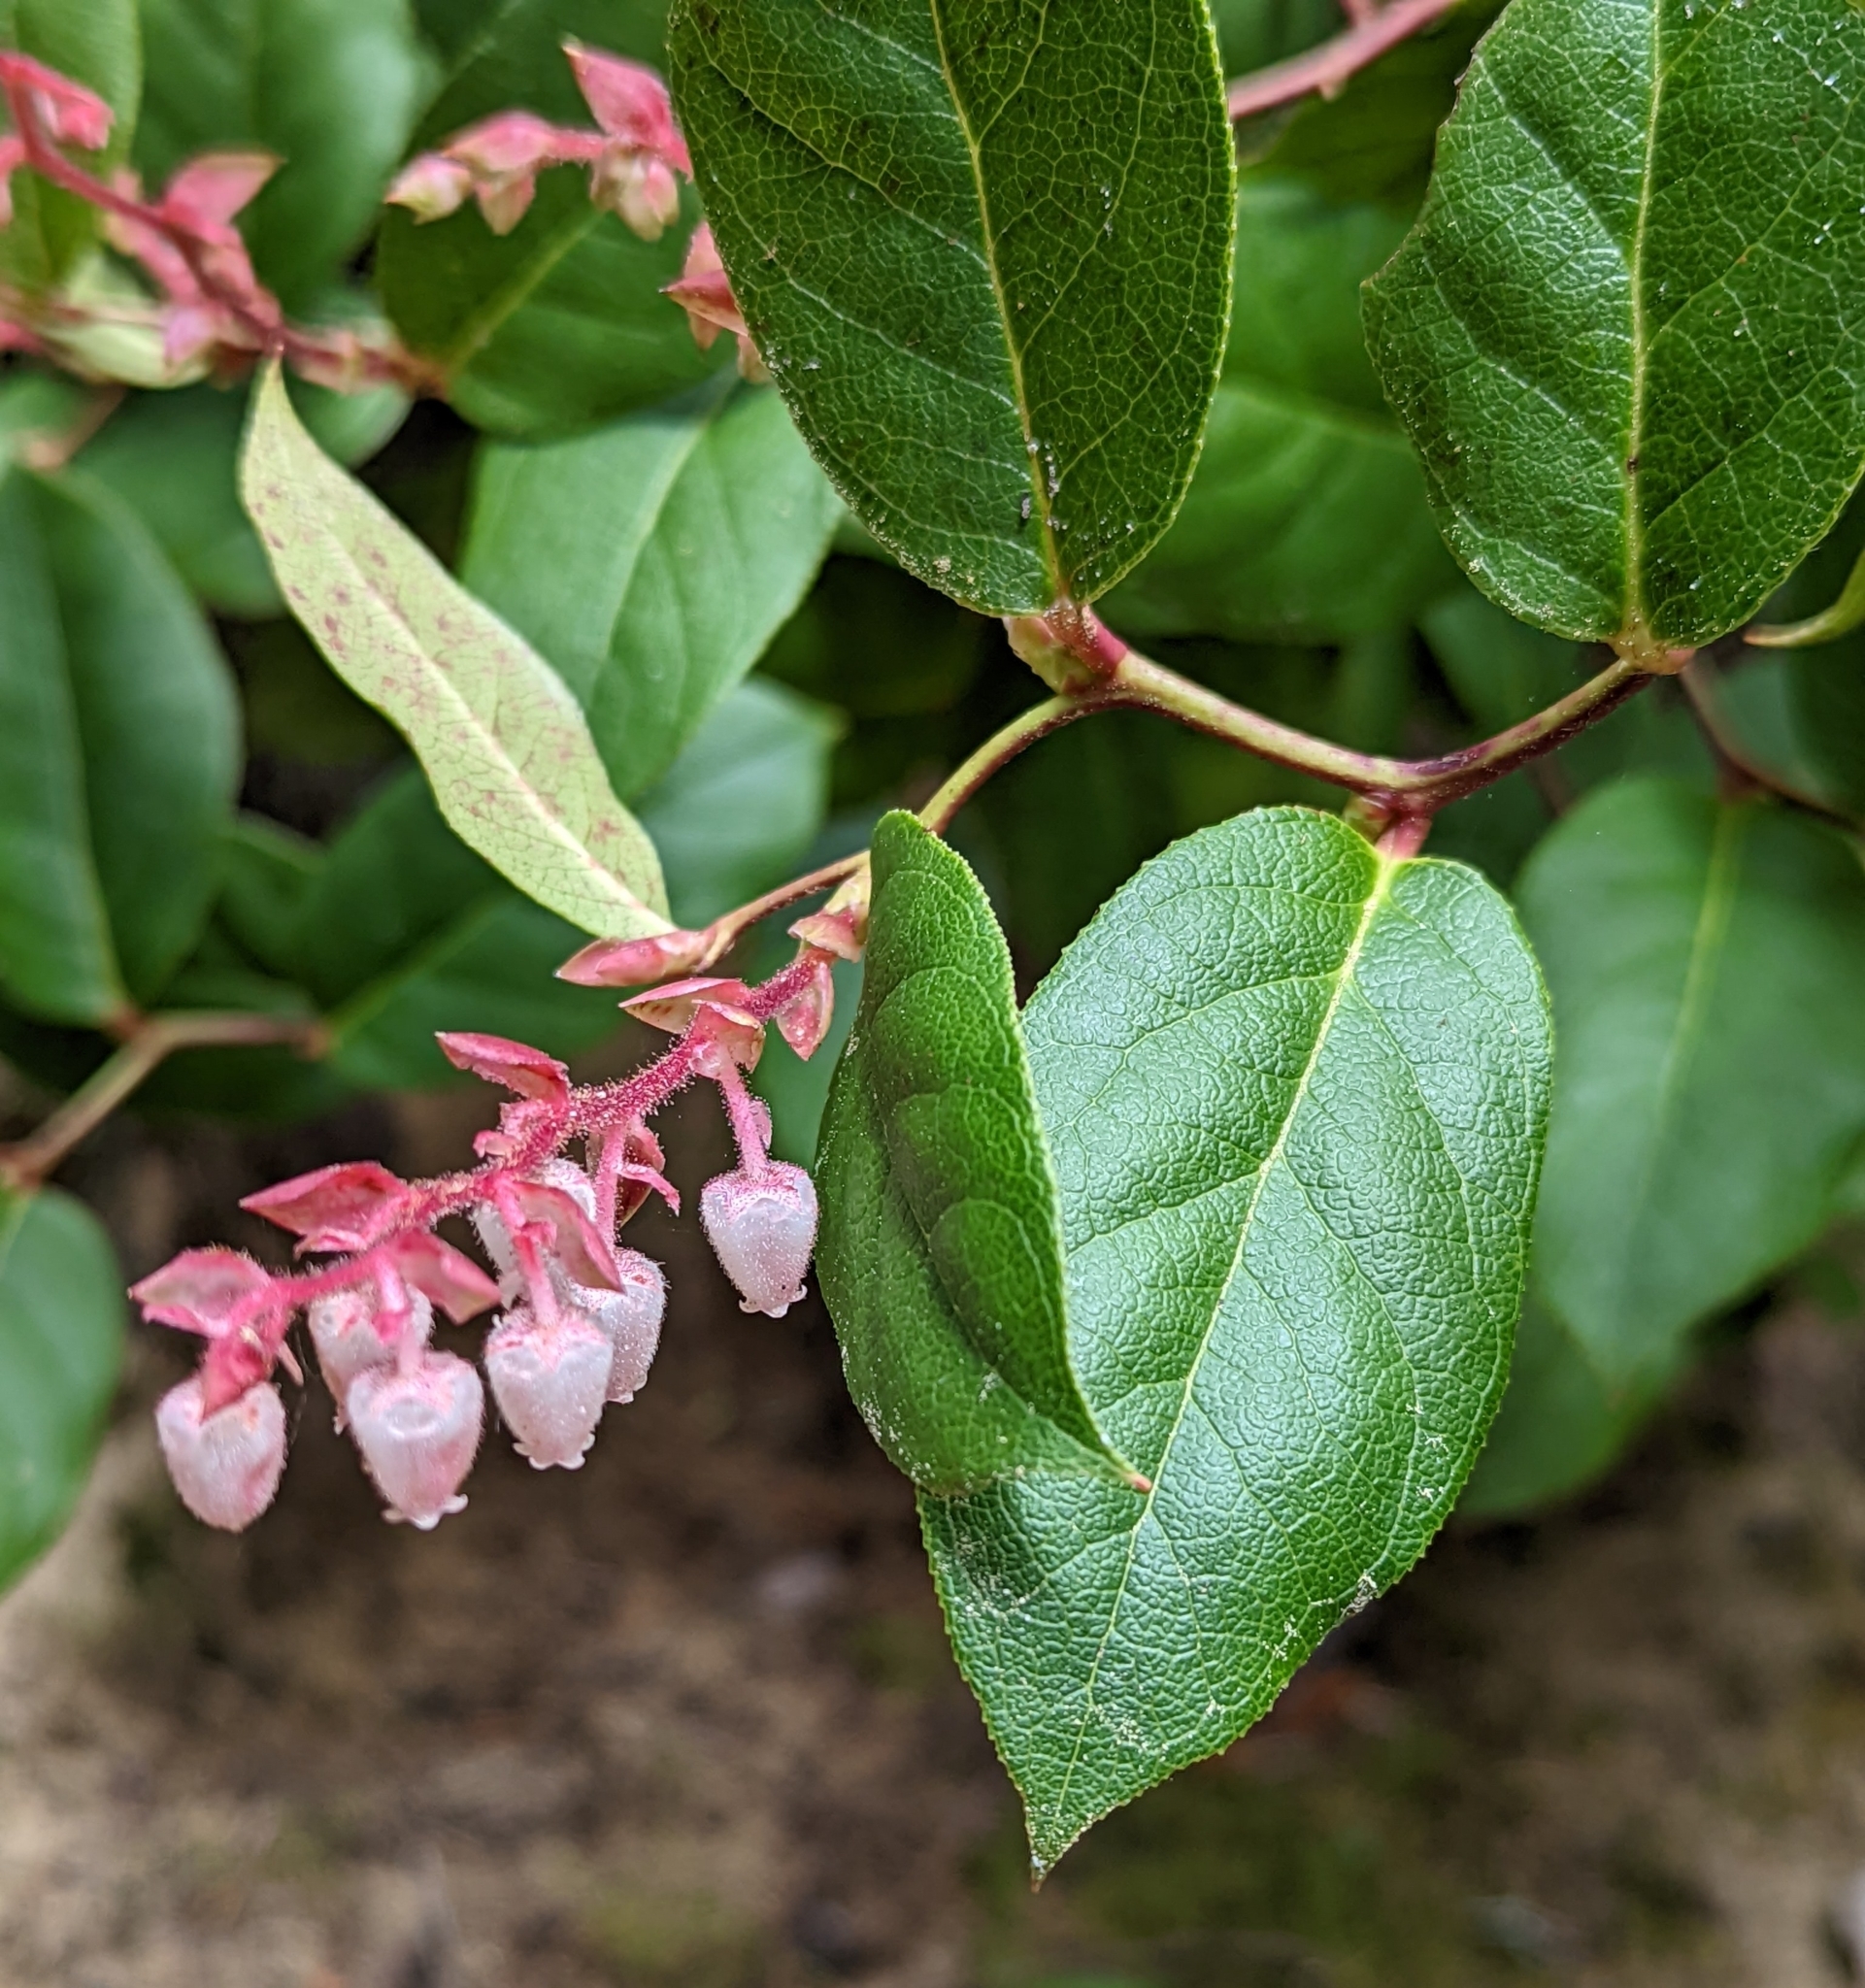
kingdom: Plantae
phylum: Tracheophyta
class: Magnoliopsida
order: Ericales
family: Ericaceae
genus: Gaultheria
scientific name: Gaultheria shallon
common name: Shallon
